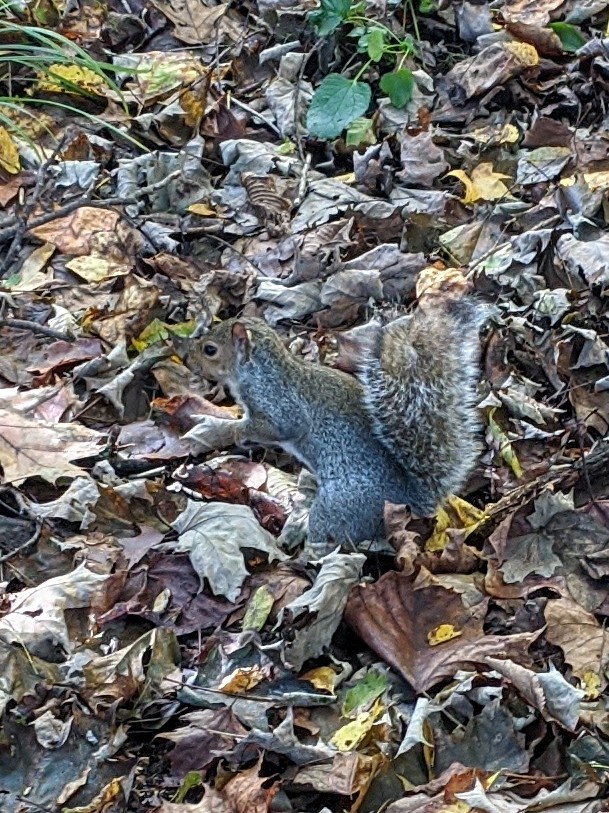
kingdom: Animalia
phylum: Chordata
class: Mammalia
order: Rodentia
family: Sciuridae
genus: Sciurus
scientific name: Sciurus carolinensis
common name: Eastern gray squirrel
